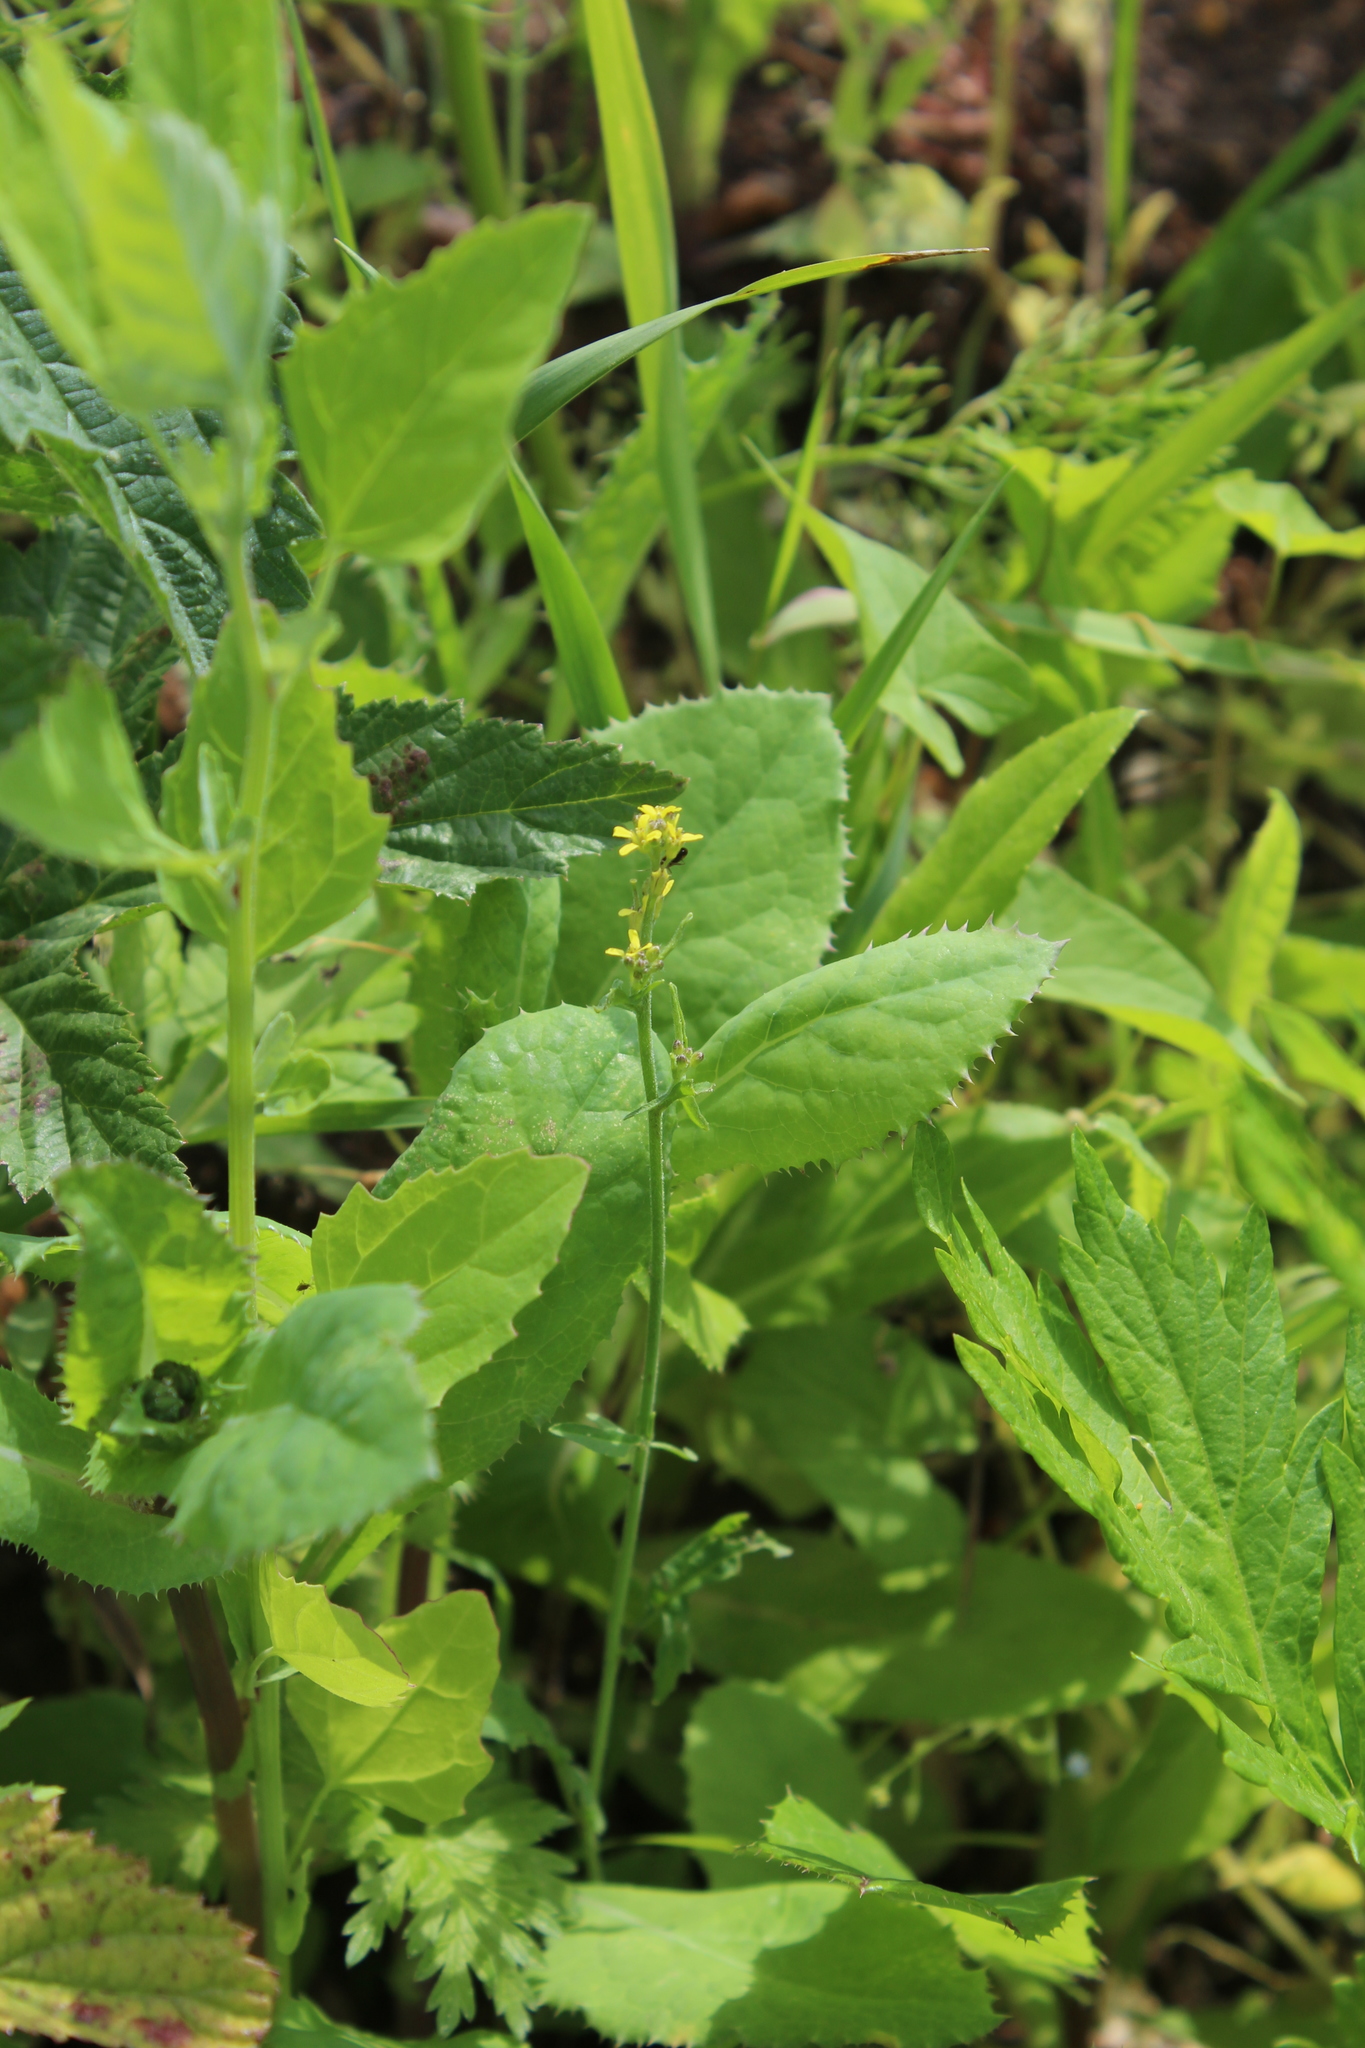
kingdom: Plantae
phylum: Tracheophyta
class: Magnoliopsida
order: Brassicales
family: Brassicaceae
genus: Sisymbrium
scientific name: Sisymbrium officinale
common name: Hedge mustard
